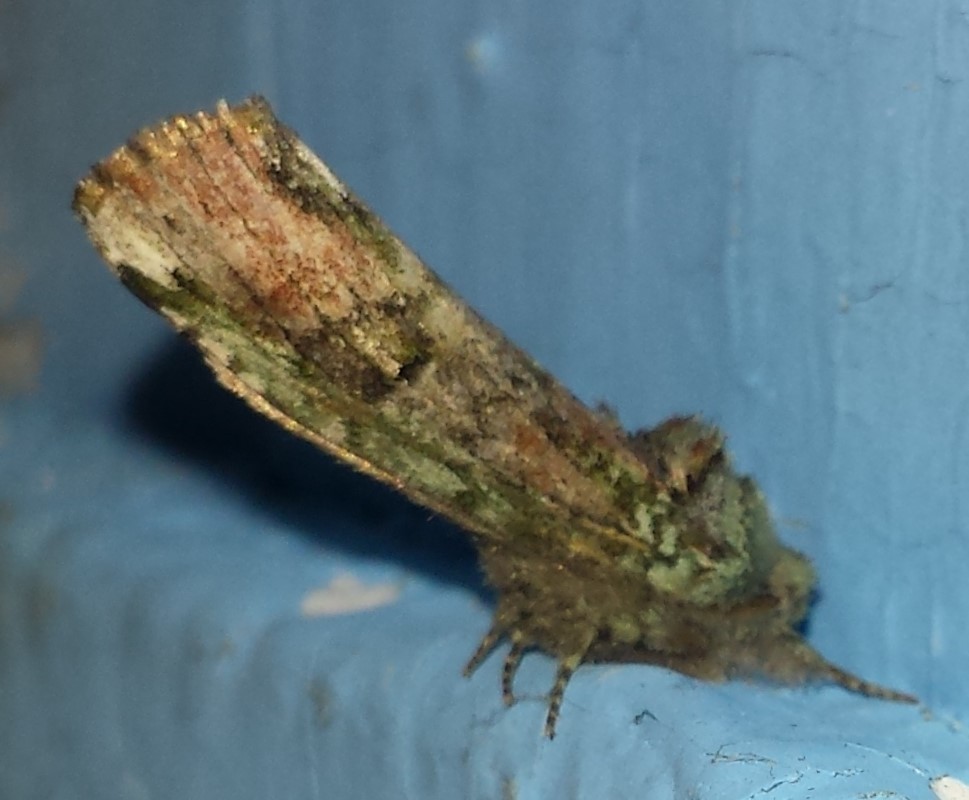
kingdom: Animalia
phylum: Arthropoda
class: Insecta
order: Lepidoptera
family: Notodontidae
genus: Schizura
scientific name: Schizura
